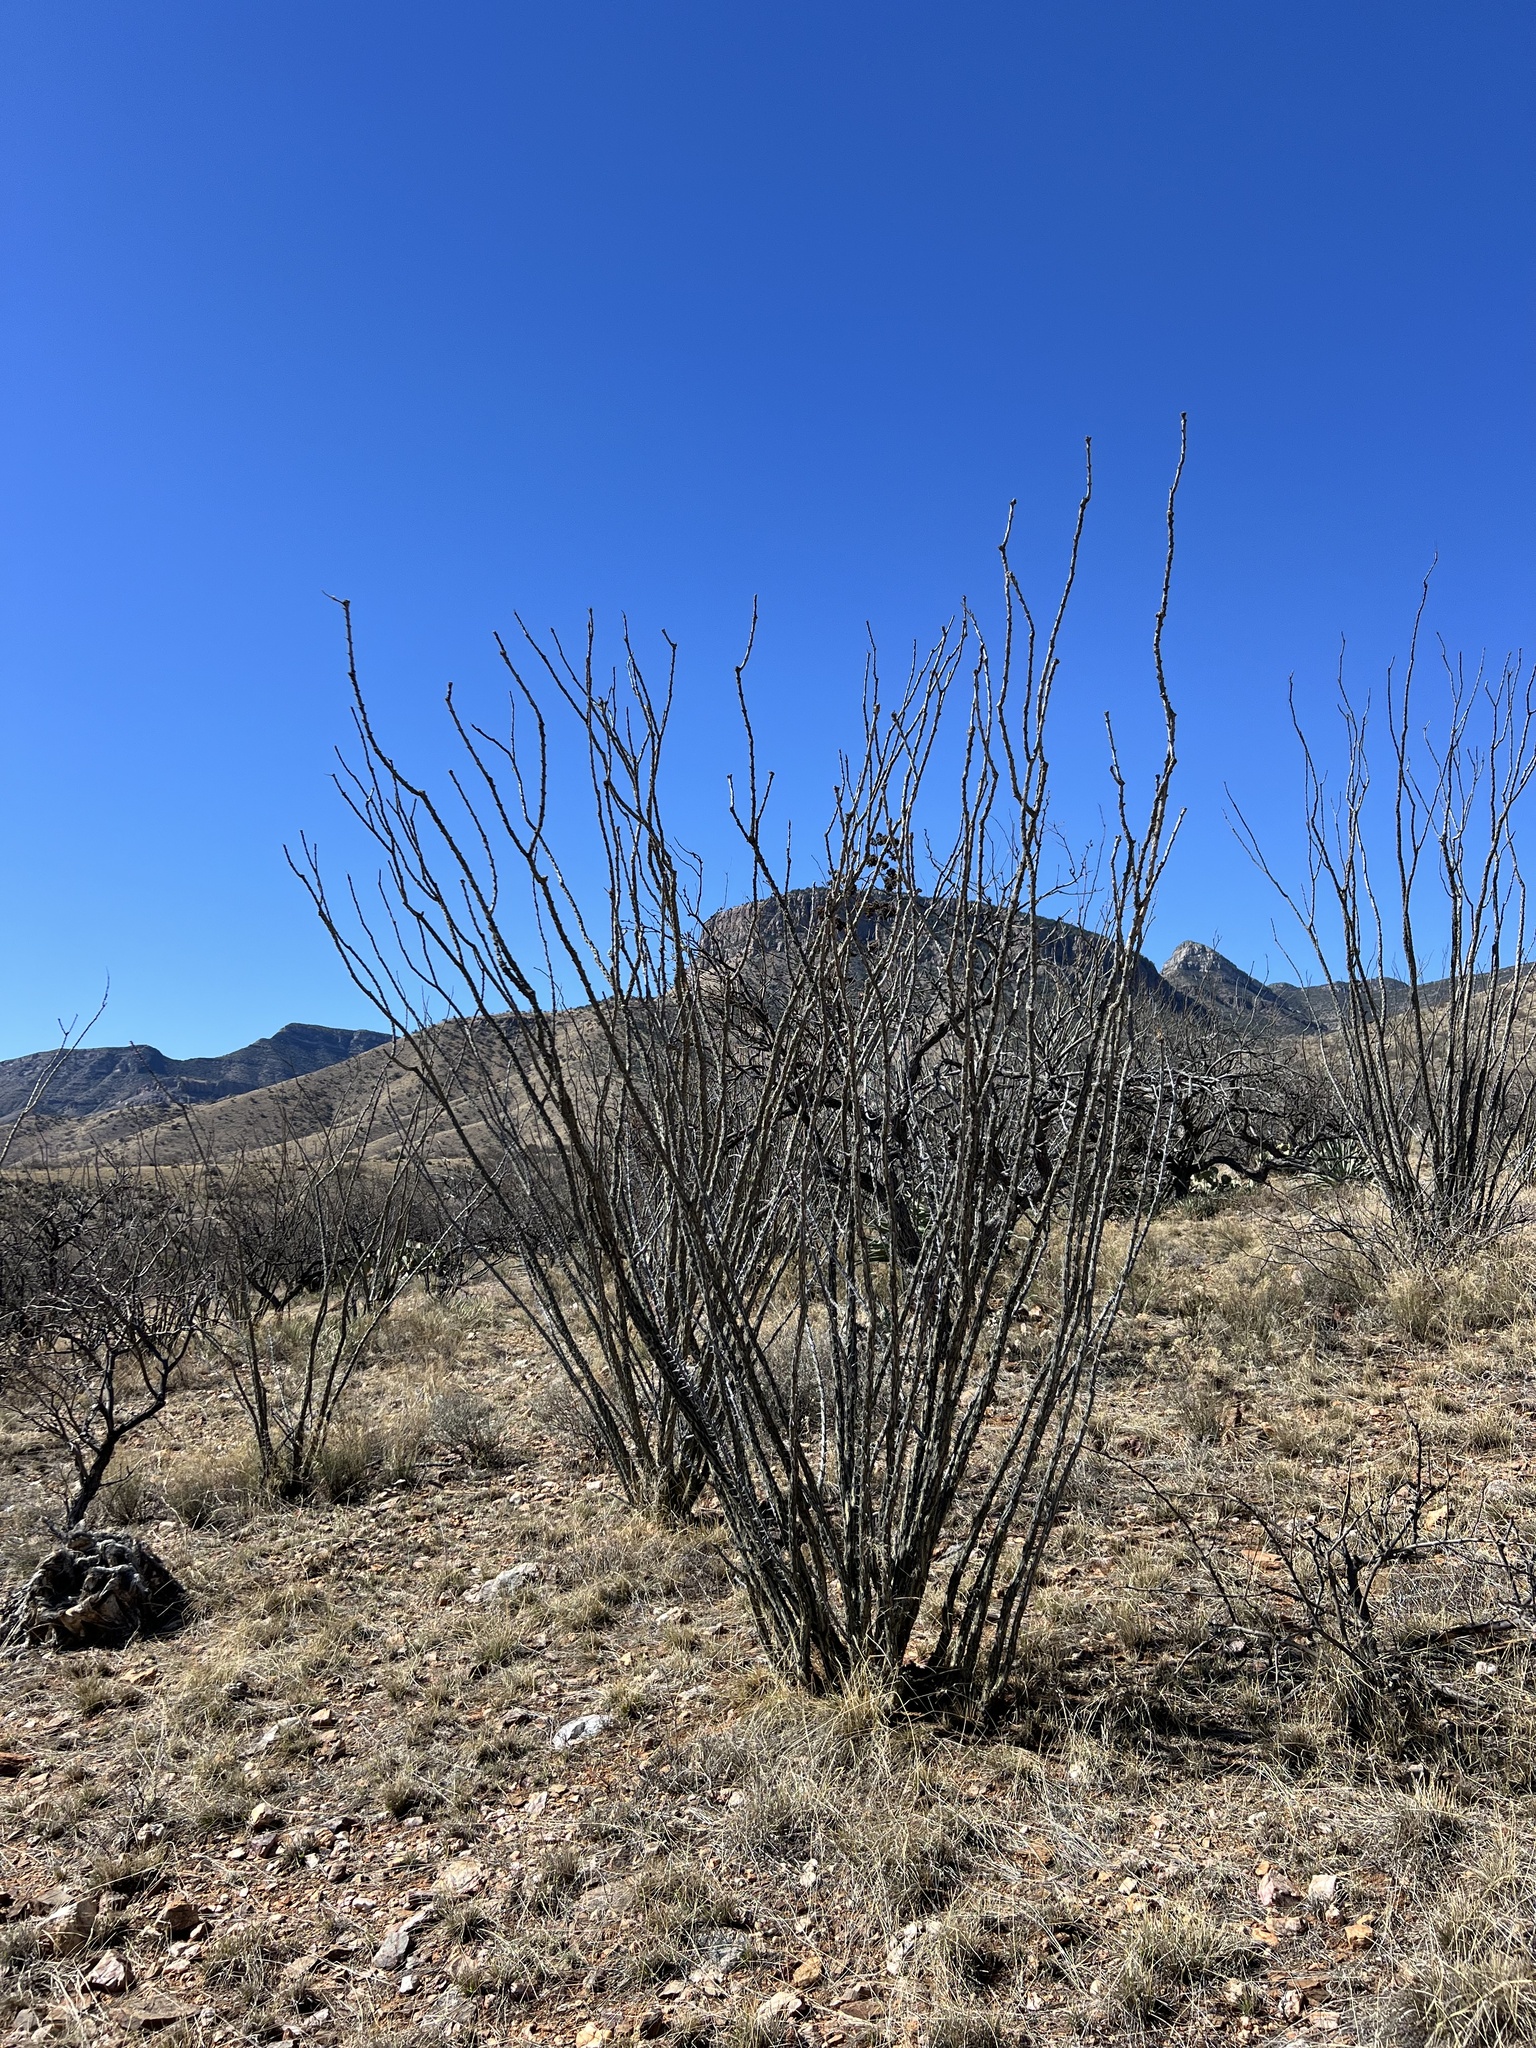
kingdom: Plantae
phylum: Tracheophyta
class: Magnoliopsida
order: Ericales
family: Fouquieriaceae
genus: Fouquieria
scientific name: Fouquieria splendens
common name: Vine-cactus
